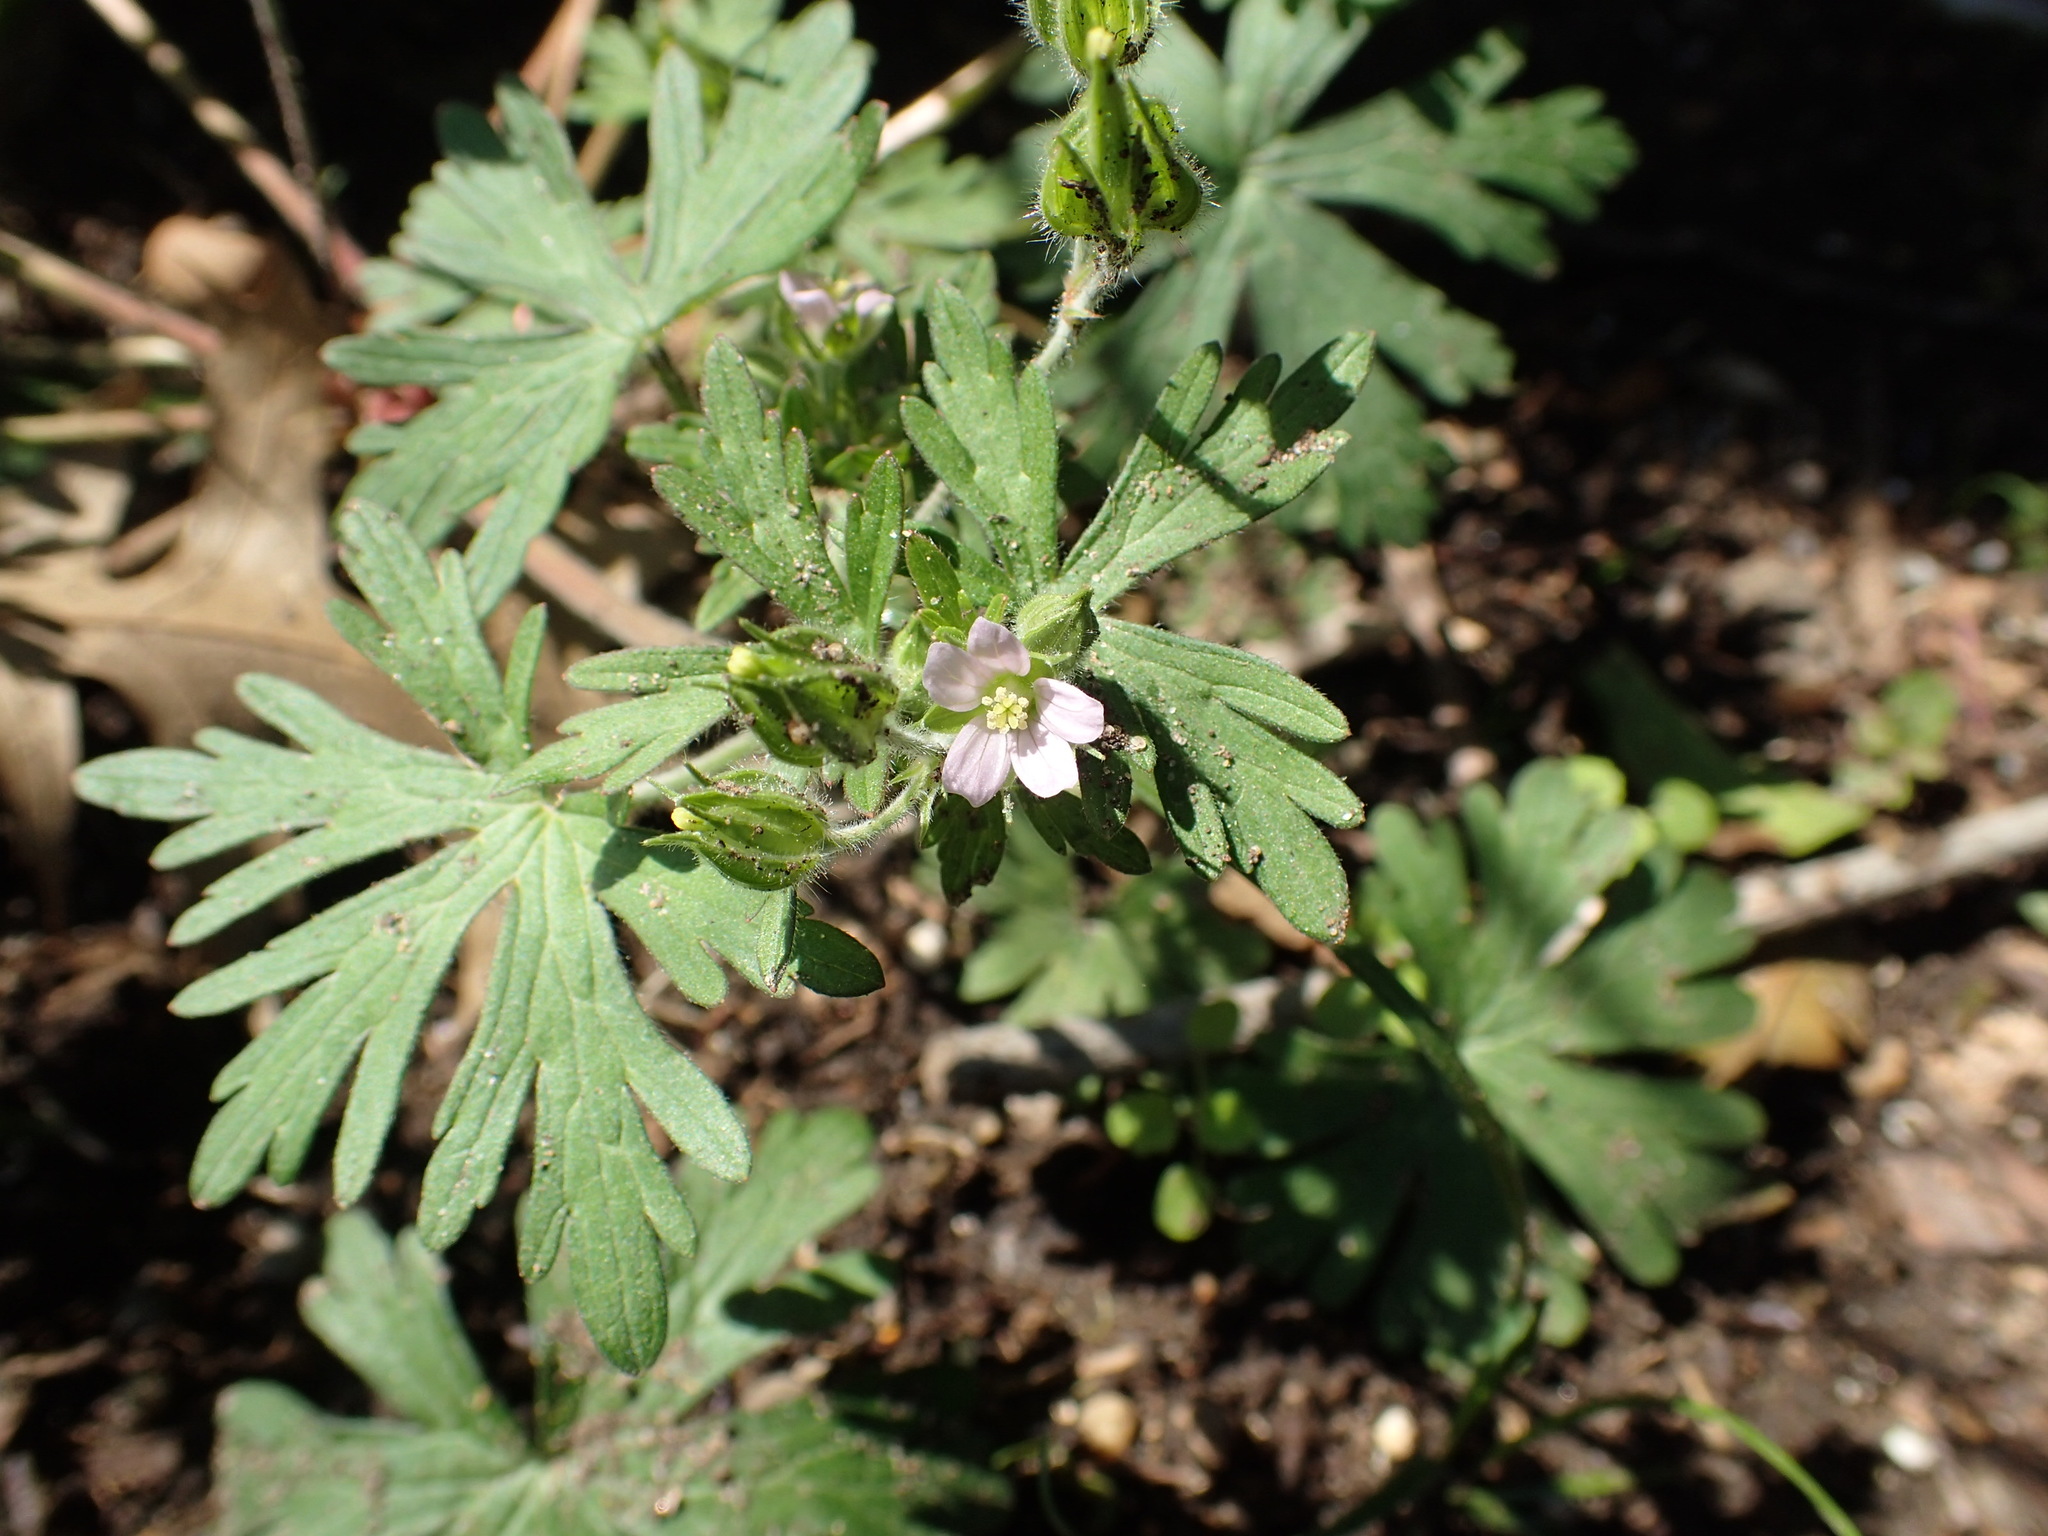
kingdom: Plantae
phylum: Tracheophyta
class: Magnoliopsida
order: Geraniales
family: Geraniaceae
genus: Geranium
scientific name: Geranium carolinianum
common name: Carolina crane's-bill
